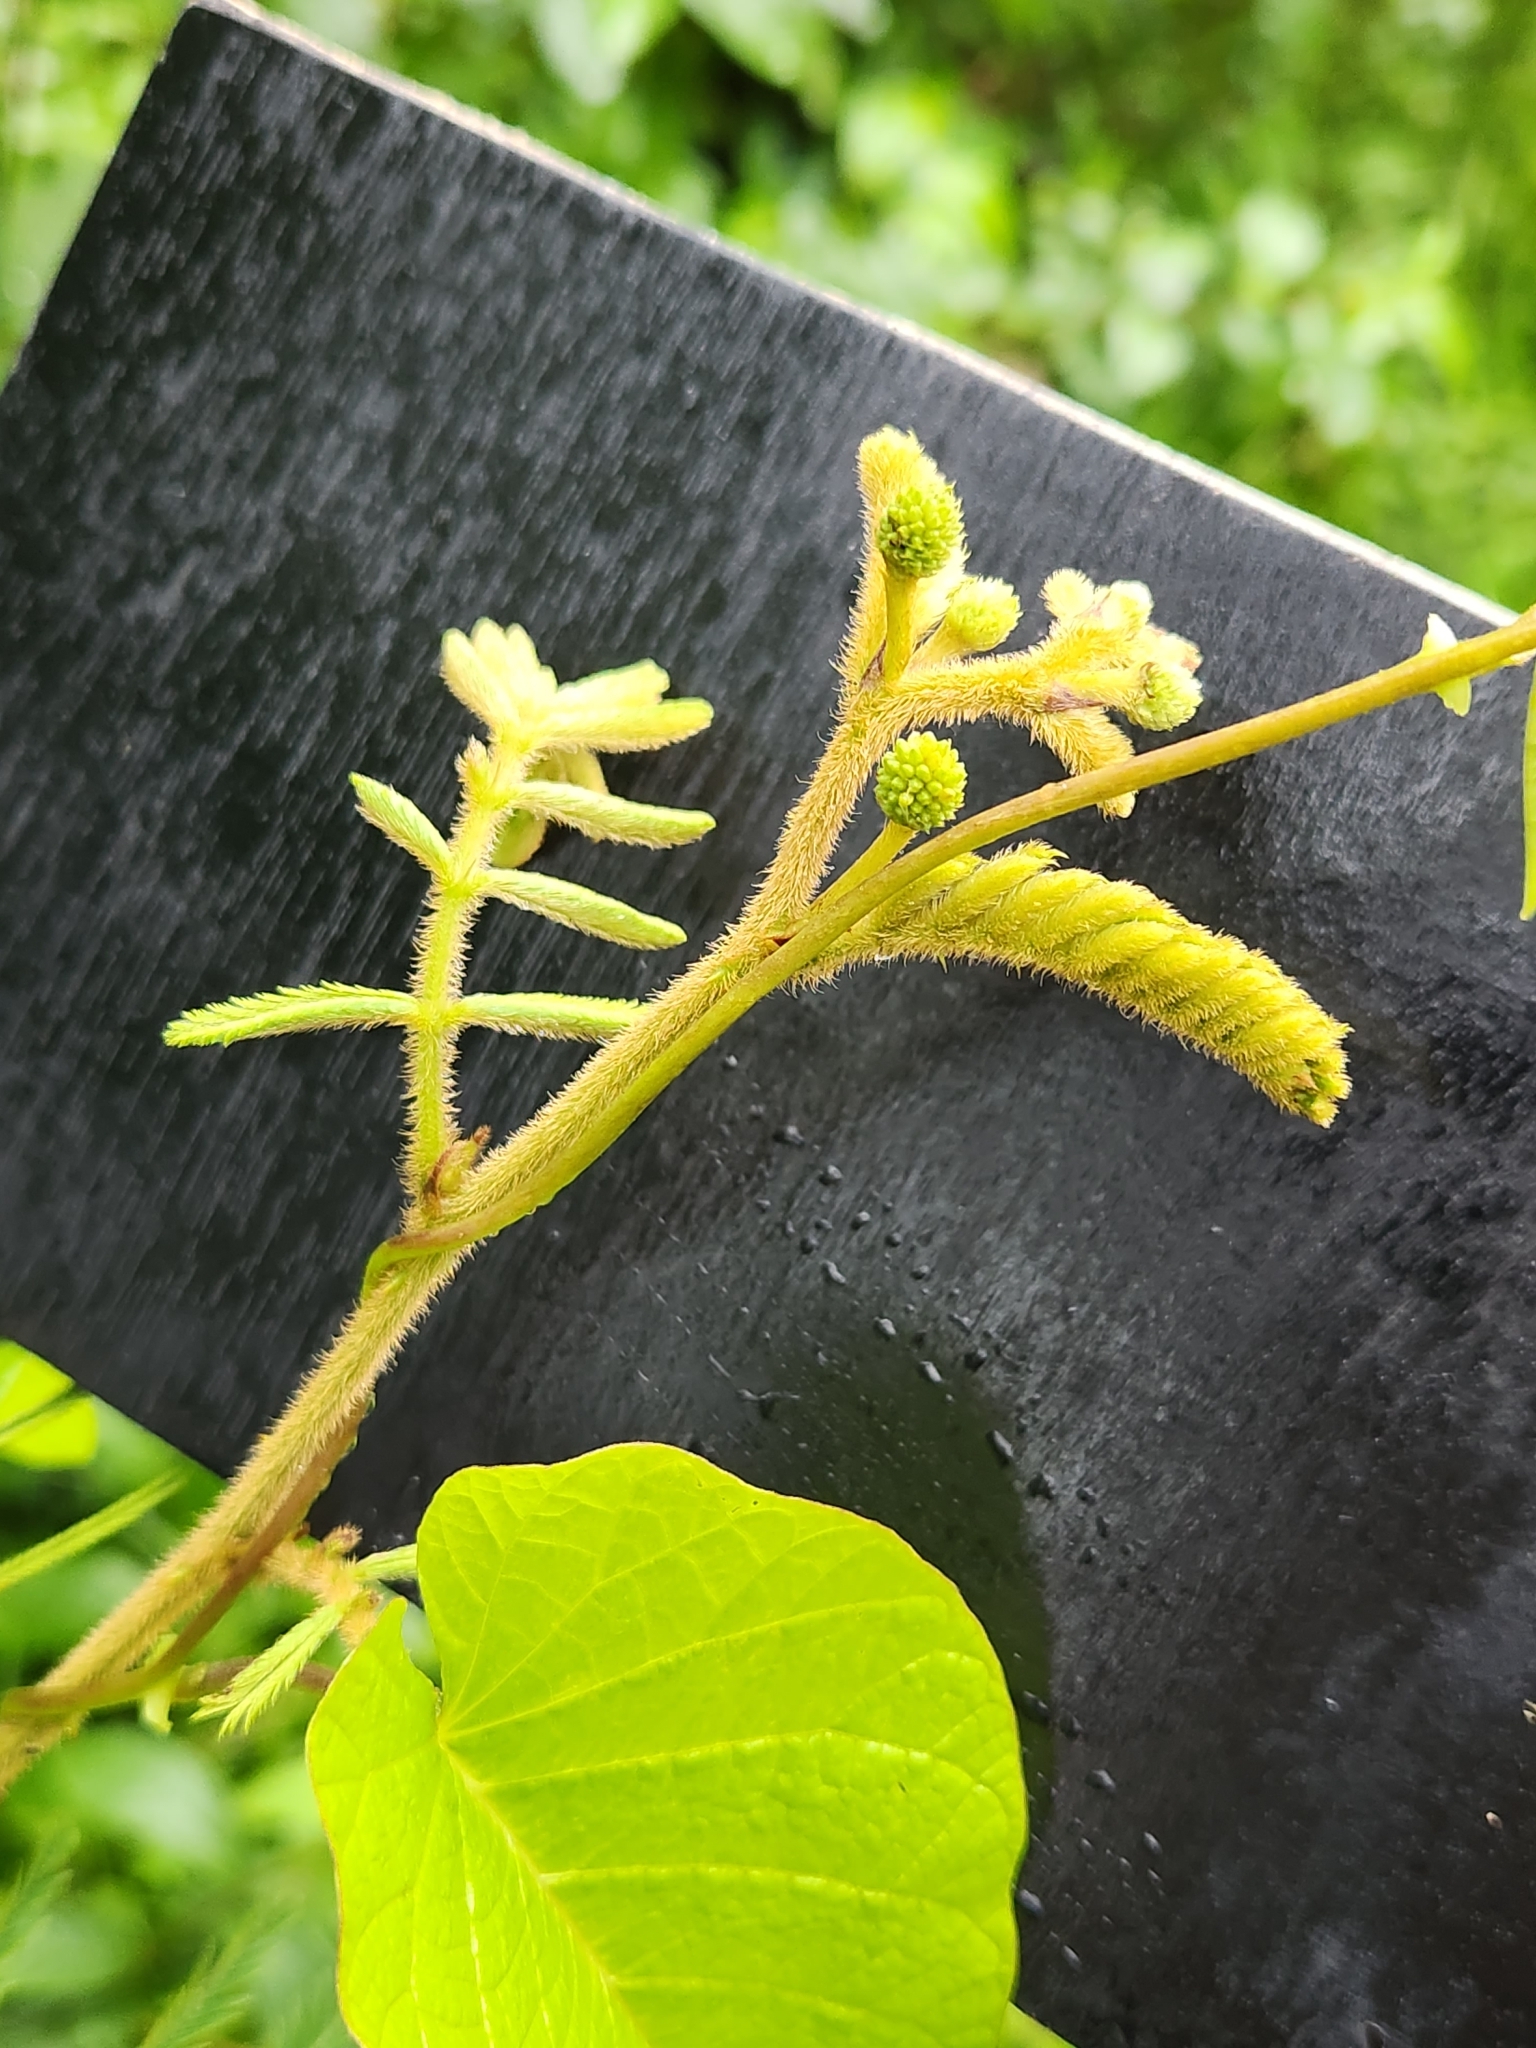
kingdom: Plantae
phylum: Tracheophyta
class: Magnoliopsida
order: Fabales
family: Fabaceae
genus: Mimosa
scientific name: Mimosa pigra
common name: Black mimosa
